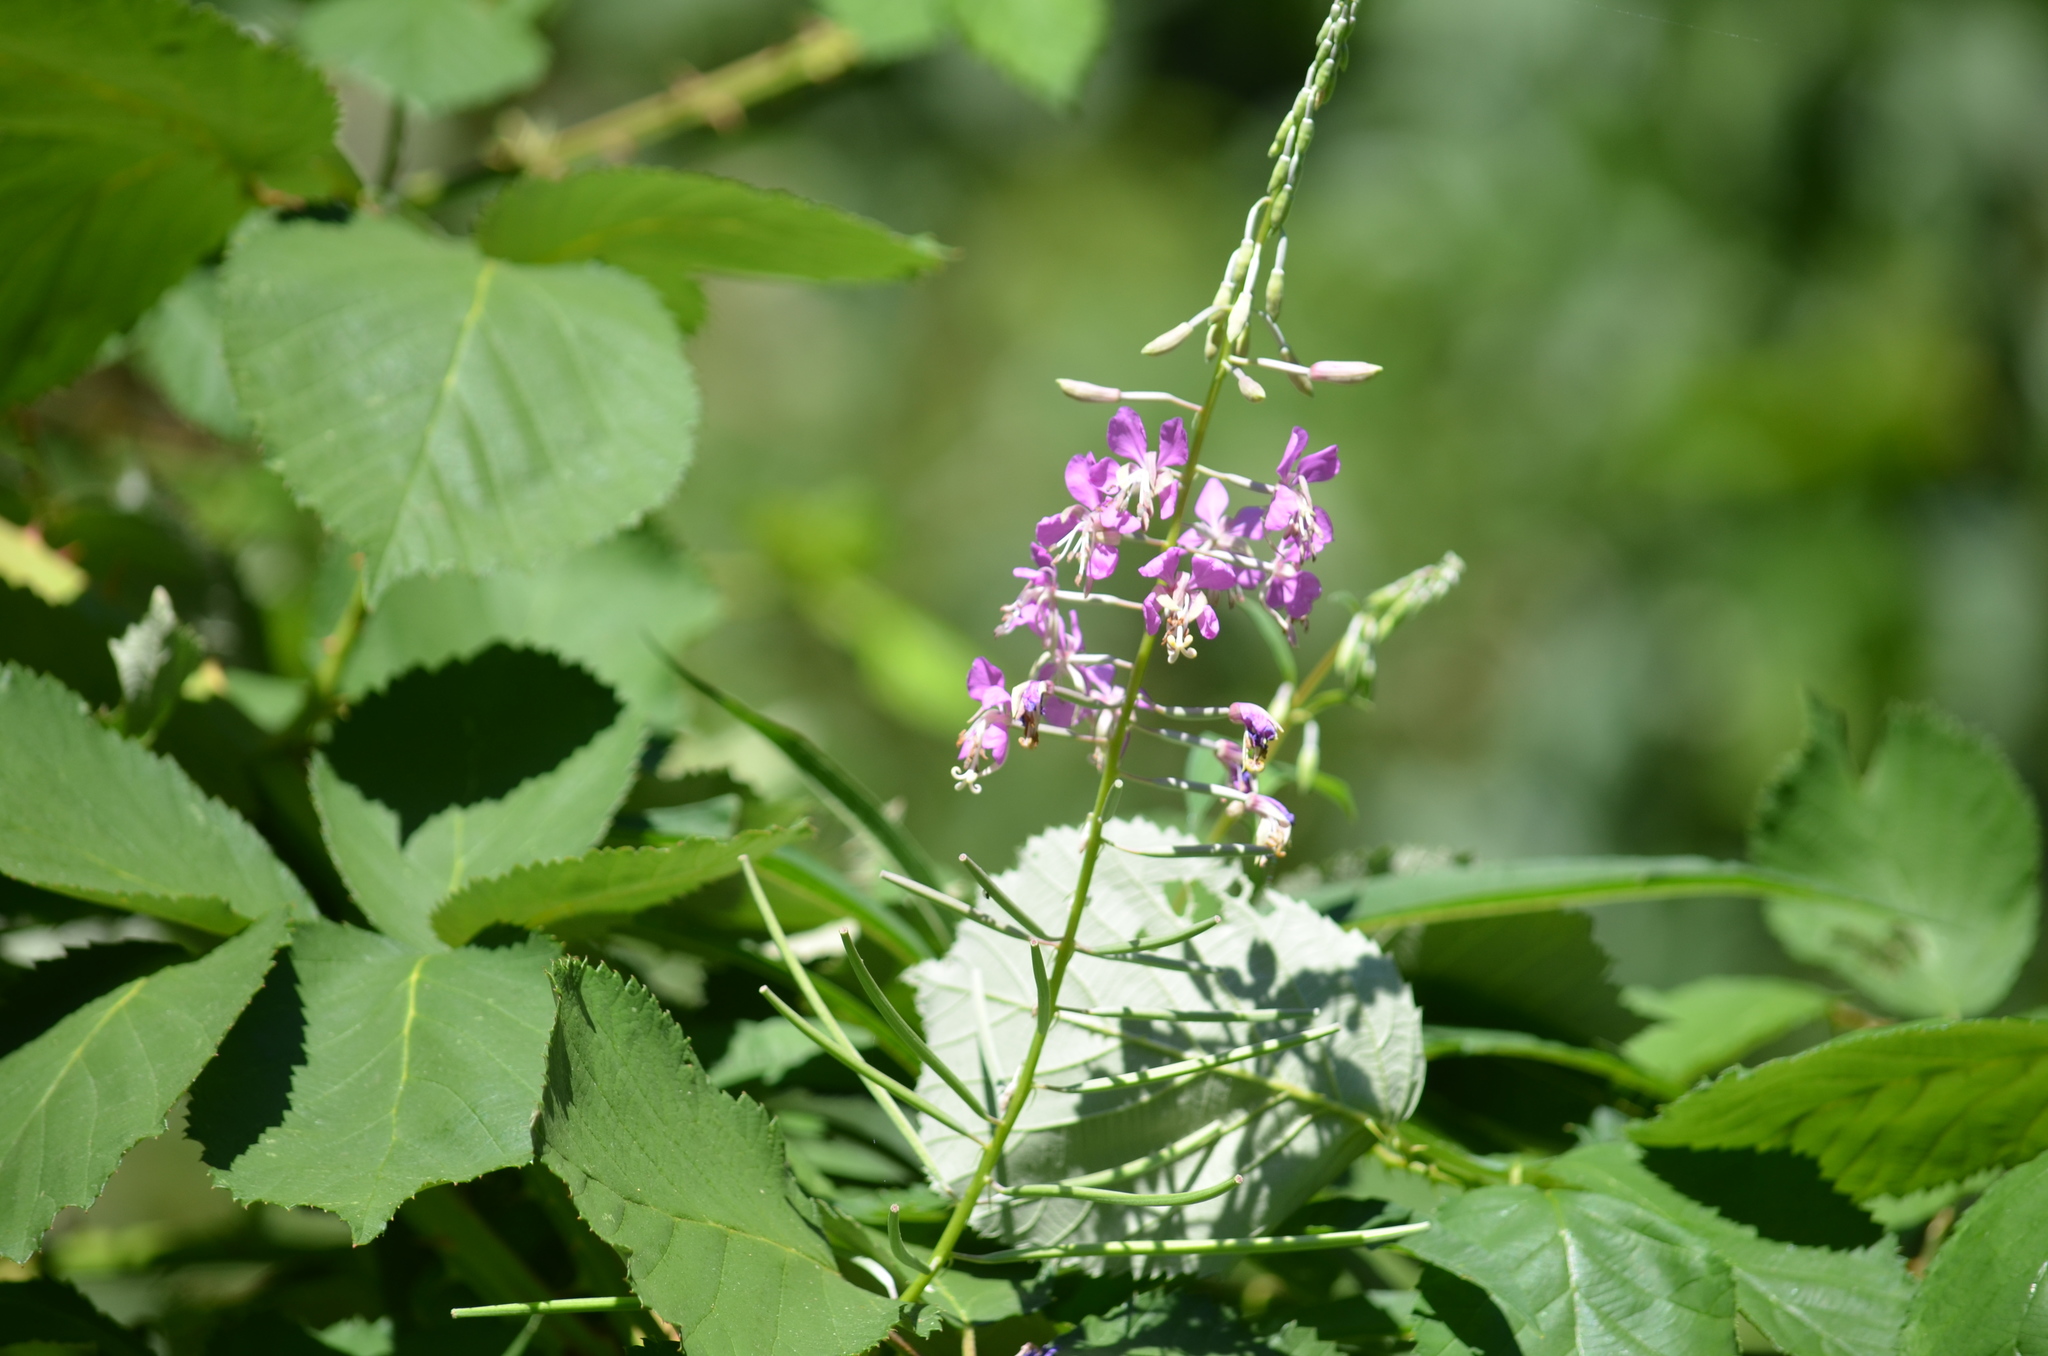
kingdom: Plantae
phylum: Tracheophyta
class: Magnoliopsida
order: Myrtales
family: Onagraceae
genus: Chamaenerion
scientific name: Chamaenerion angustifolium
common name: Fireweed
